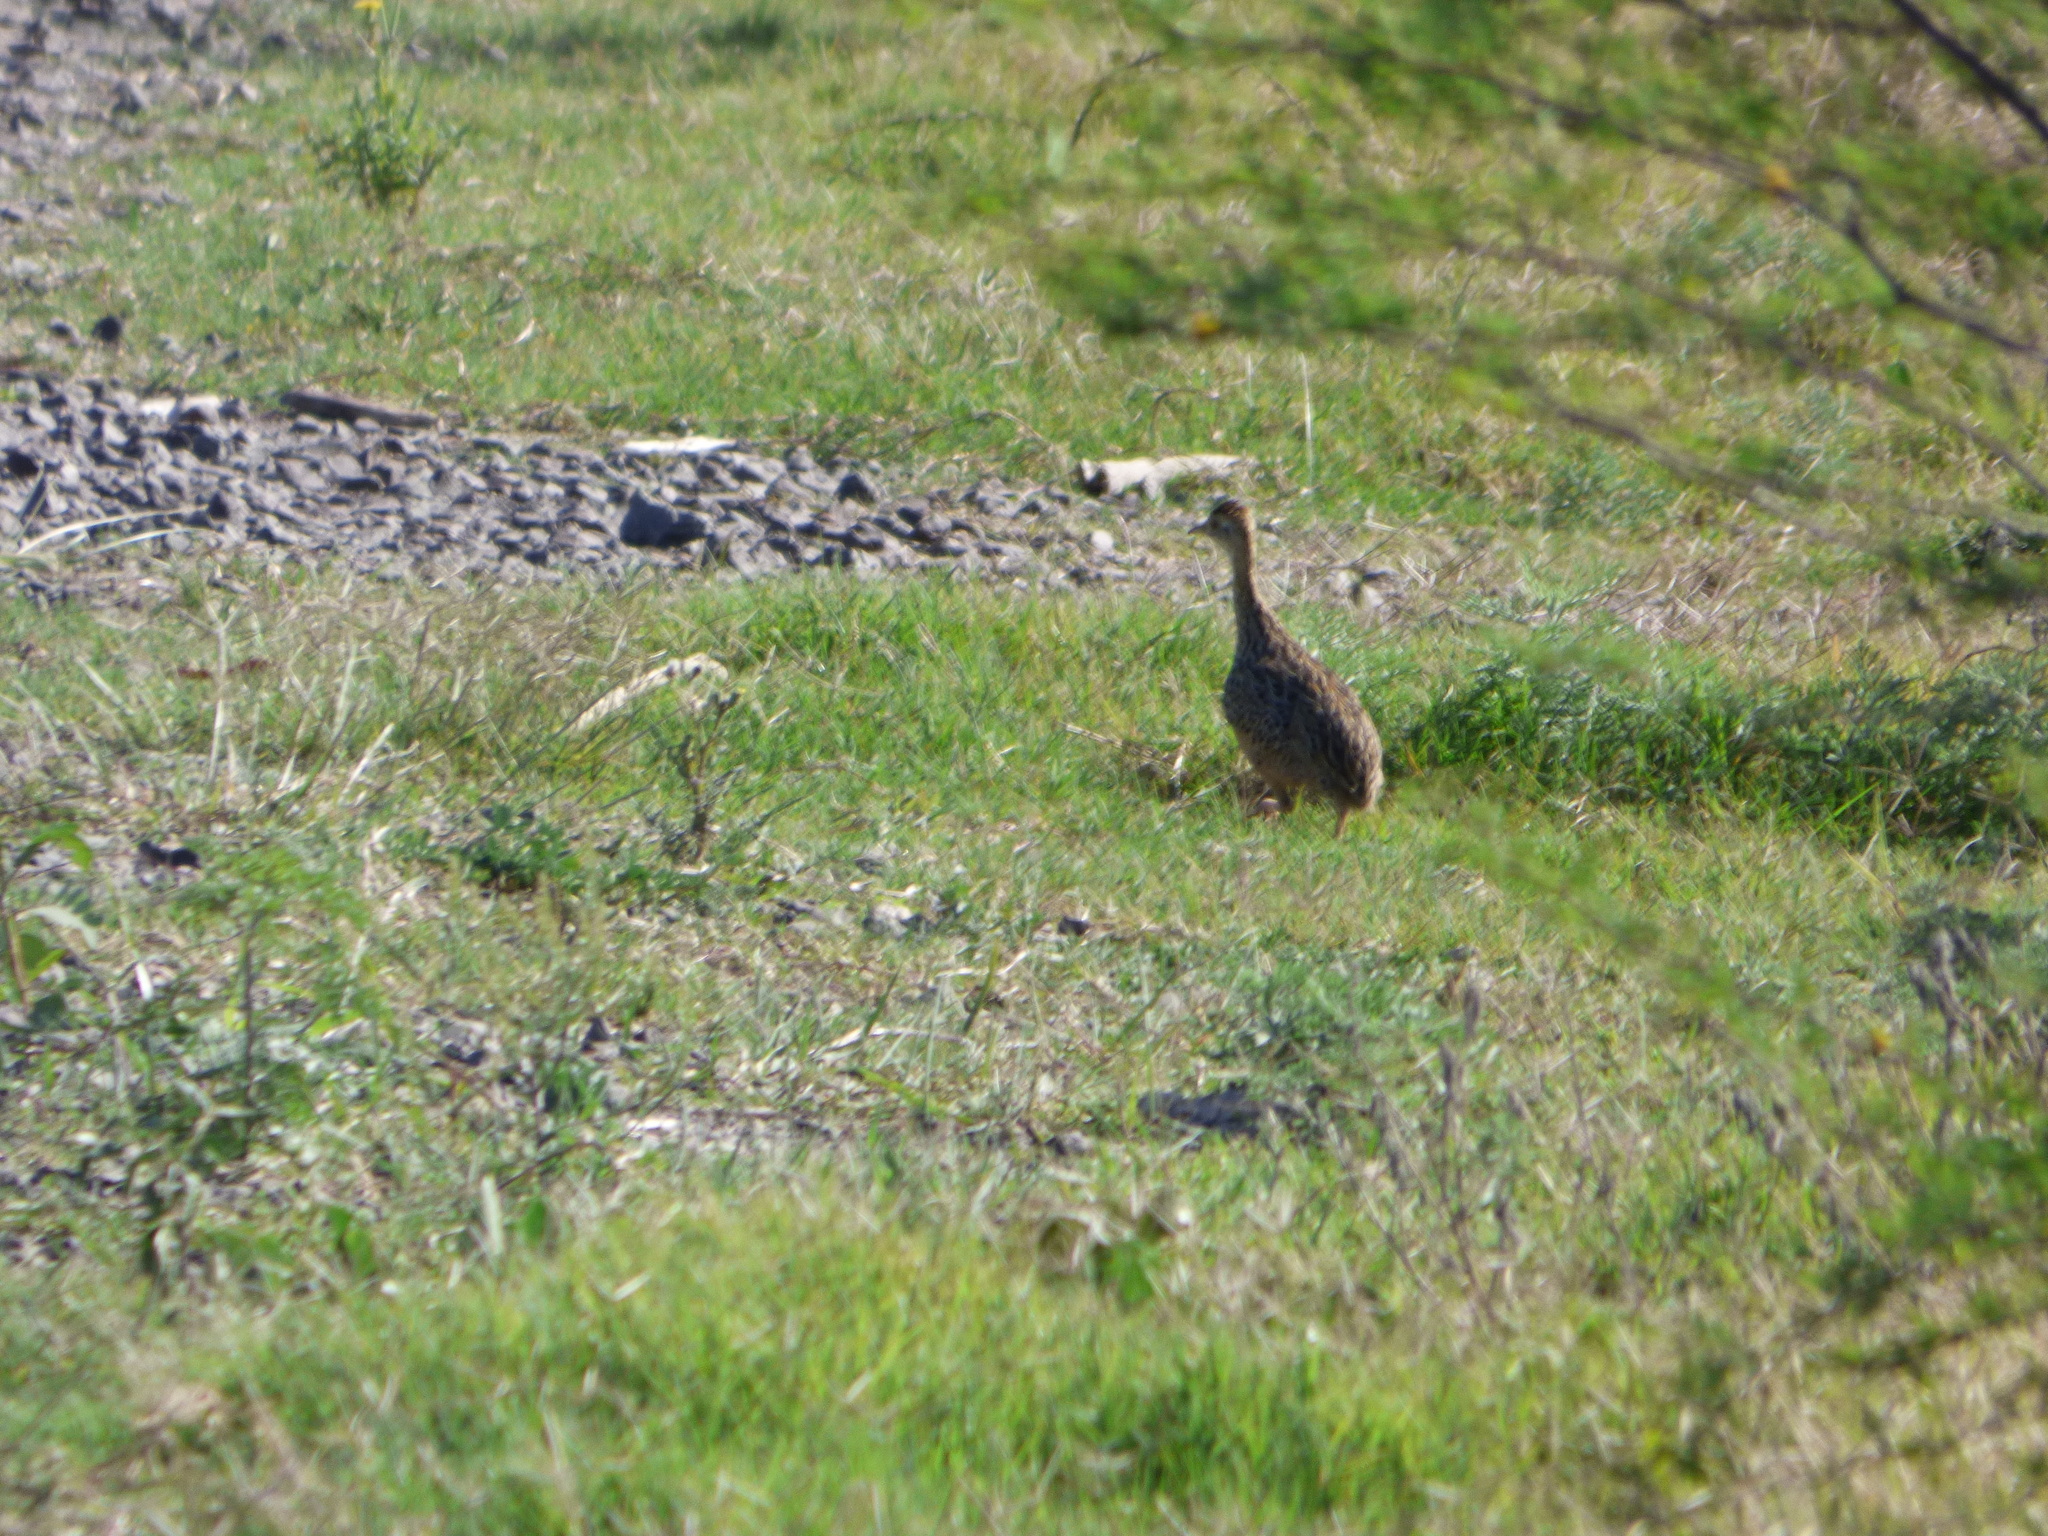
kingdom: Animalia
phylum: Chordata
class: Aves
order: Tinamiformes
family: Tinamidae
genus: Nothura
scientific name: Nothura maculosa
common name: Spotted nothura
